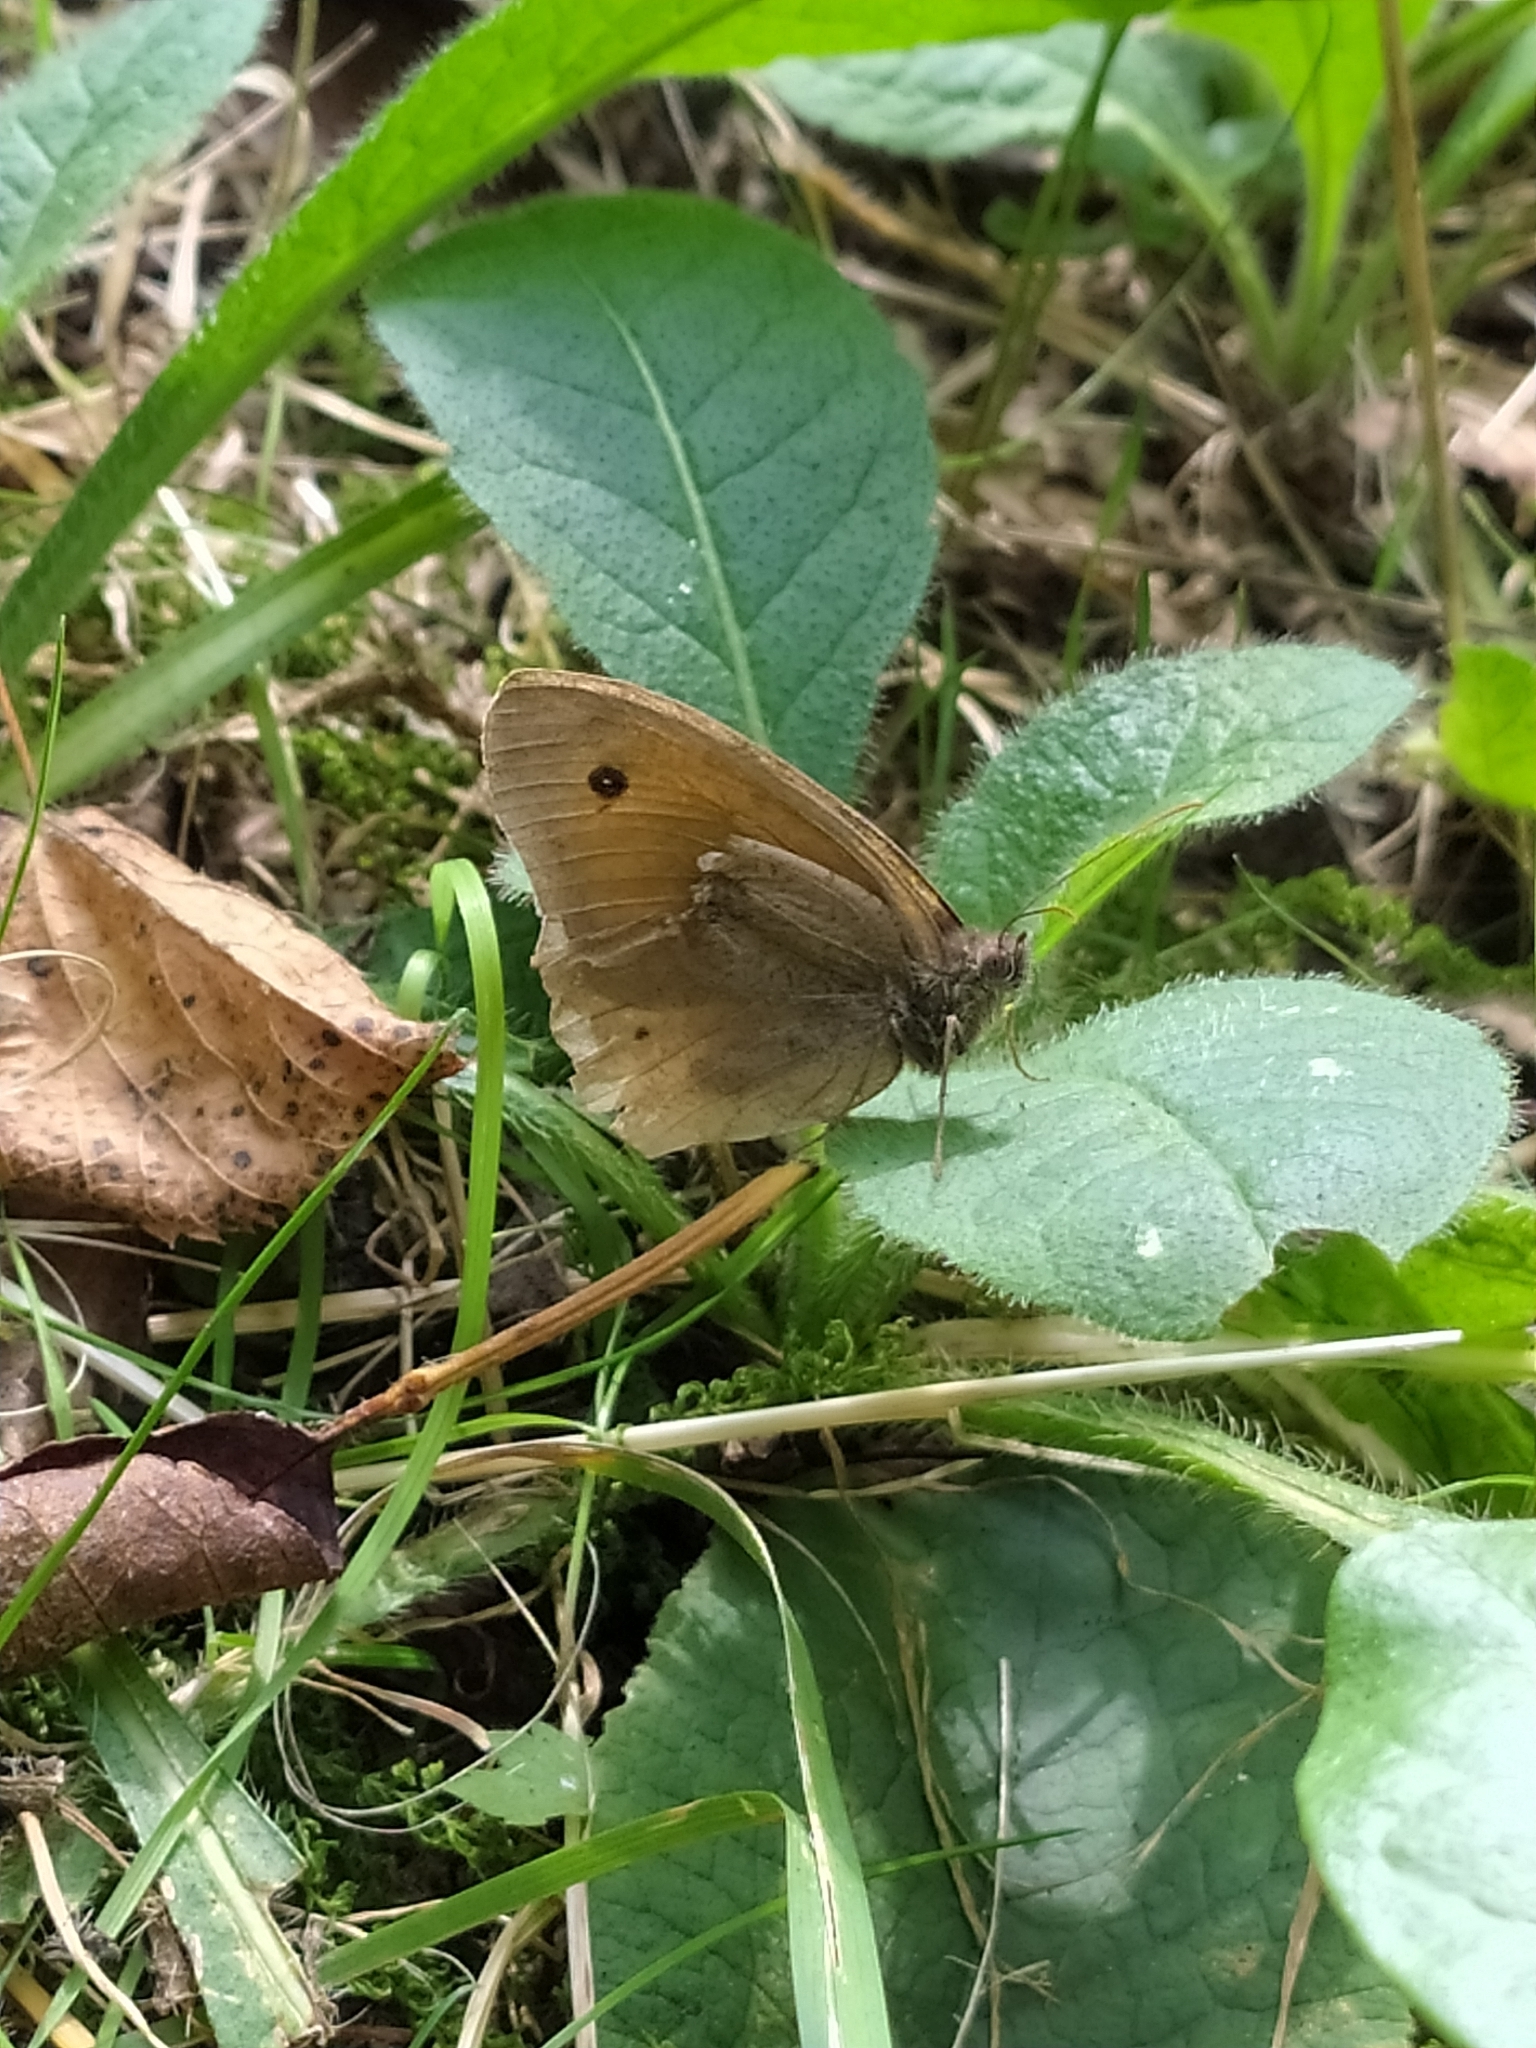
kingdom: Animalia
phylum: Arthropoda
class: Insecta
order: Lepidoptera
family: Nymphalidae
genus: Maniola
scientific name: Maniola jurtina
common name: Meadow brown
